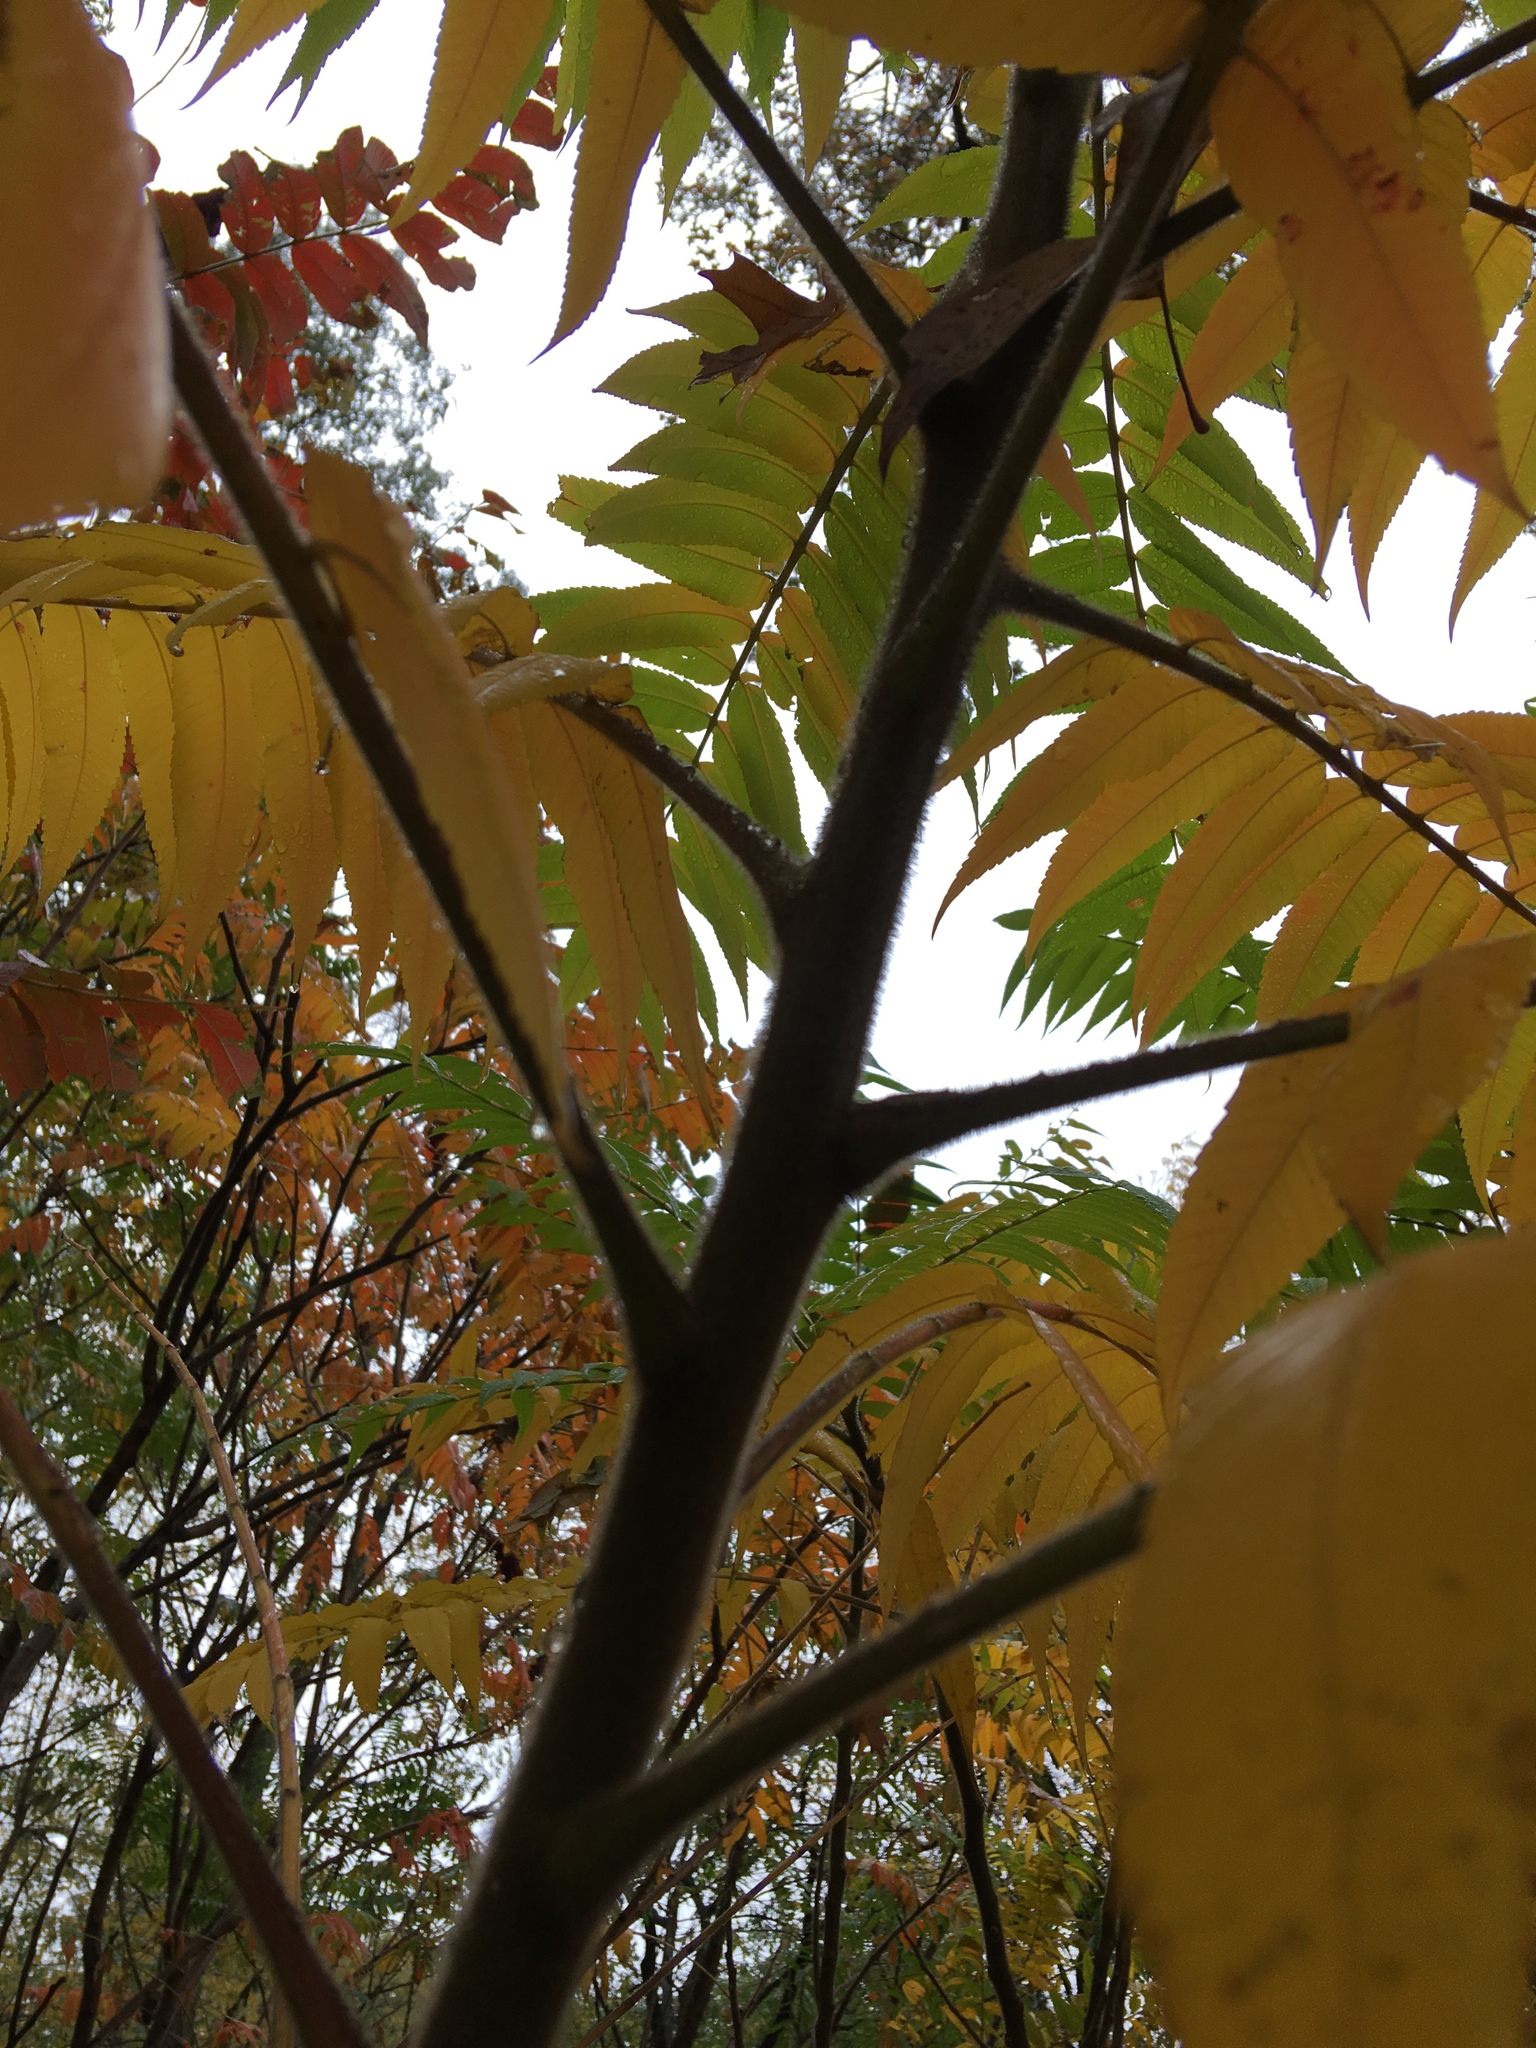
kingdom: Plantae
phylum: Tracheophyta
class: Magnoliopsida
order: Sapindales
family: Anacardiaceae
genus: Rhus
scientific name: Rhus typhina
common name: Staghorn sumac
